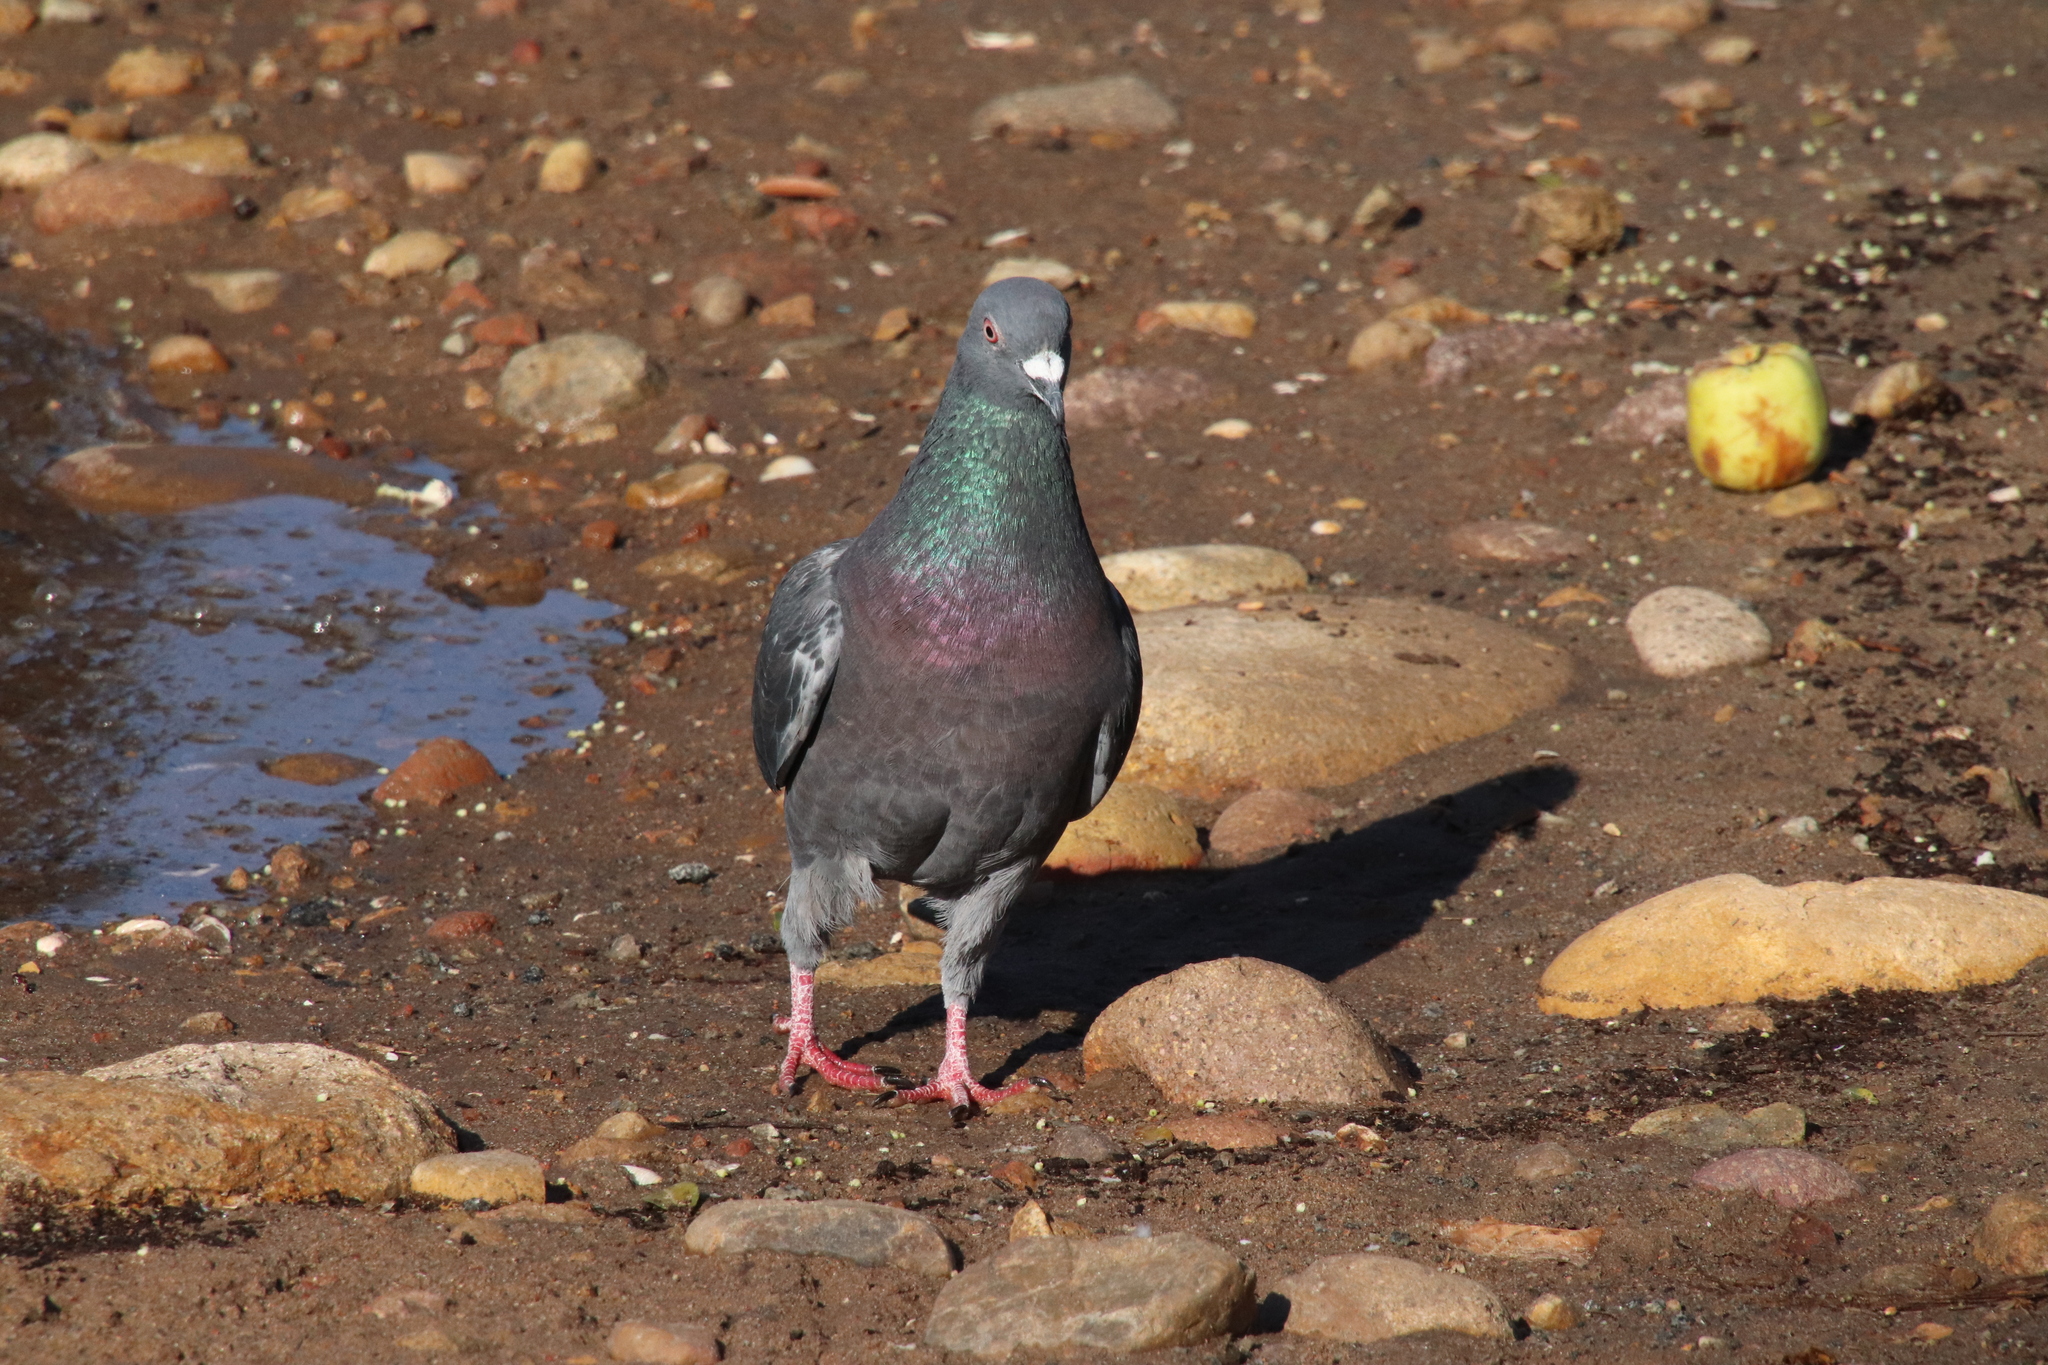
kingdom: Animalia
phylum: Chordata
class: Aves
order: Columbiformes
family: Columbidae
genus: Columba
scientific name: Columba livia
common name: Rock pigeon
